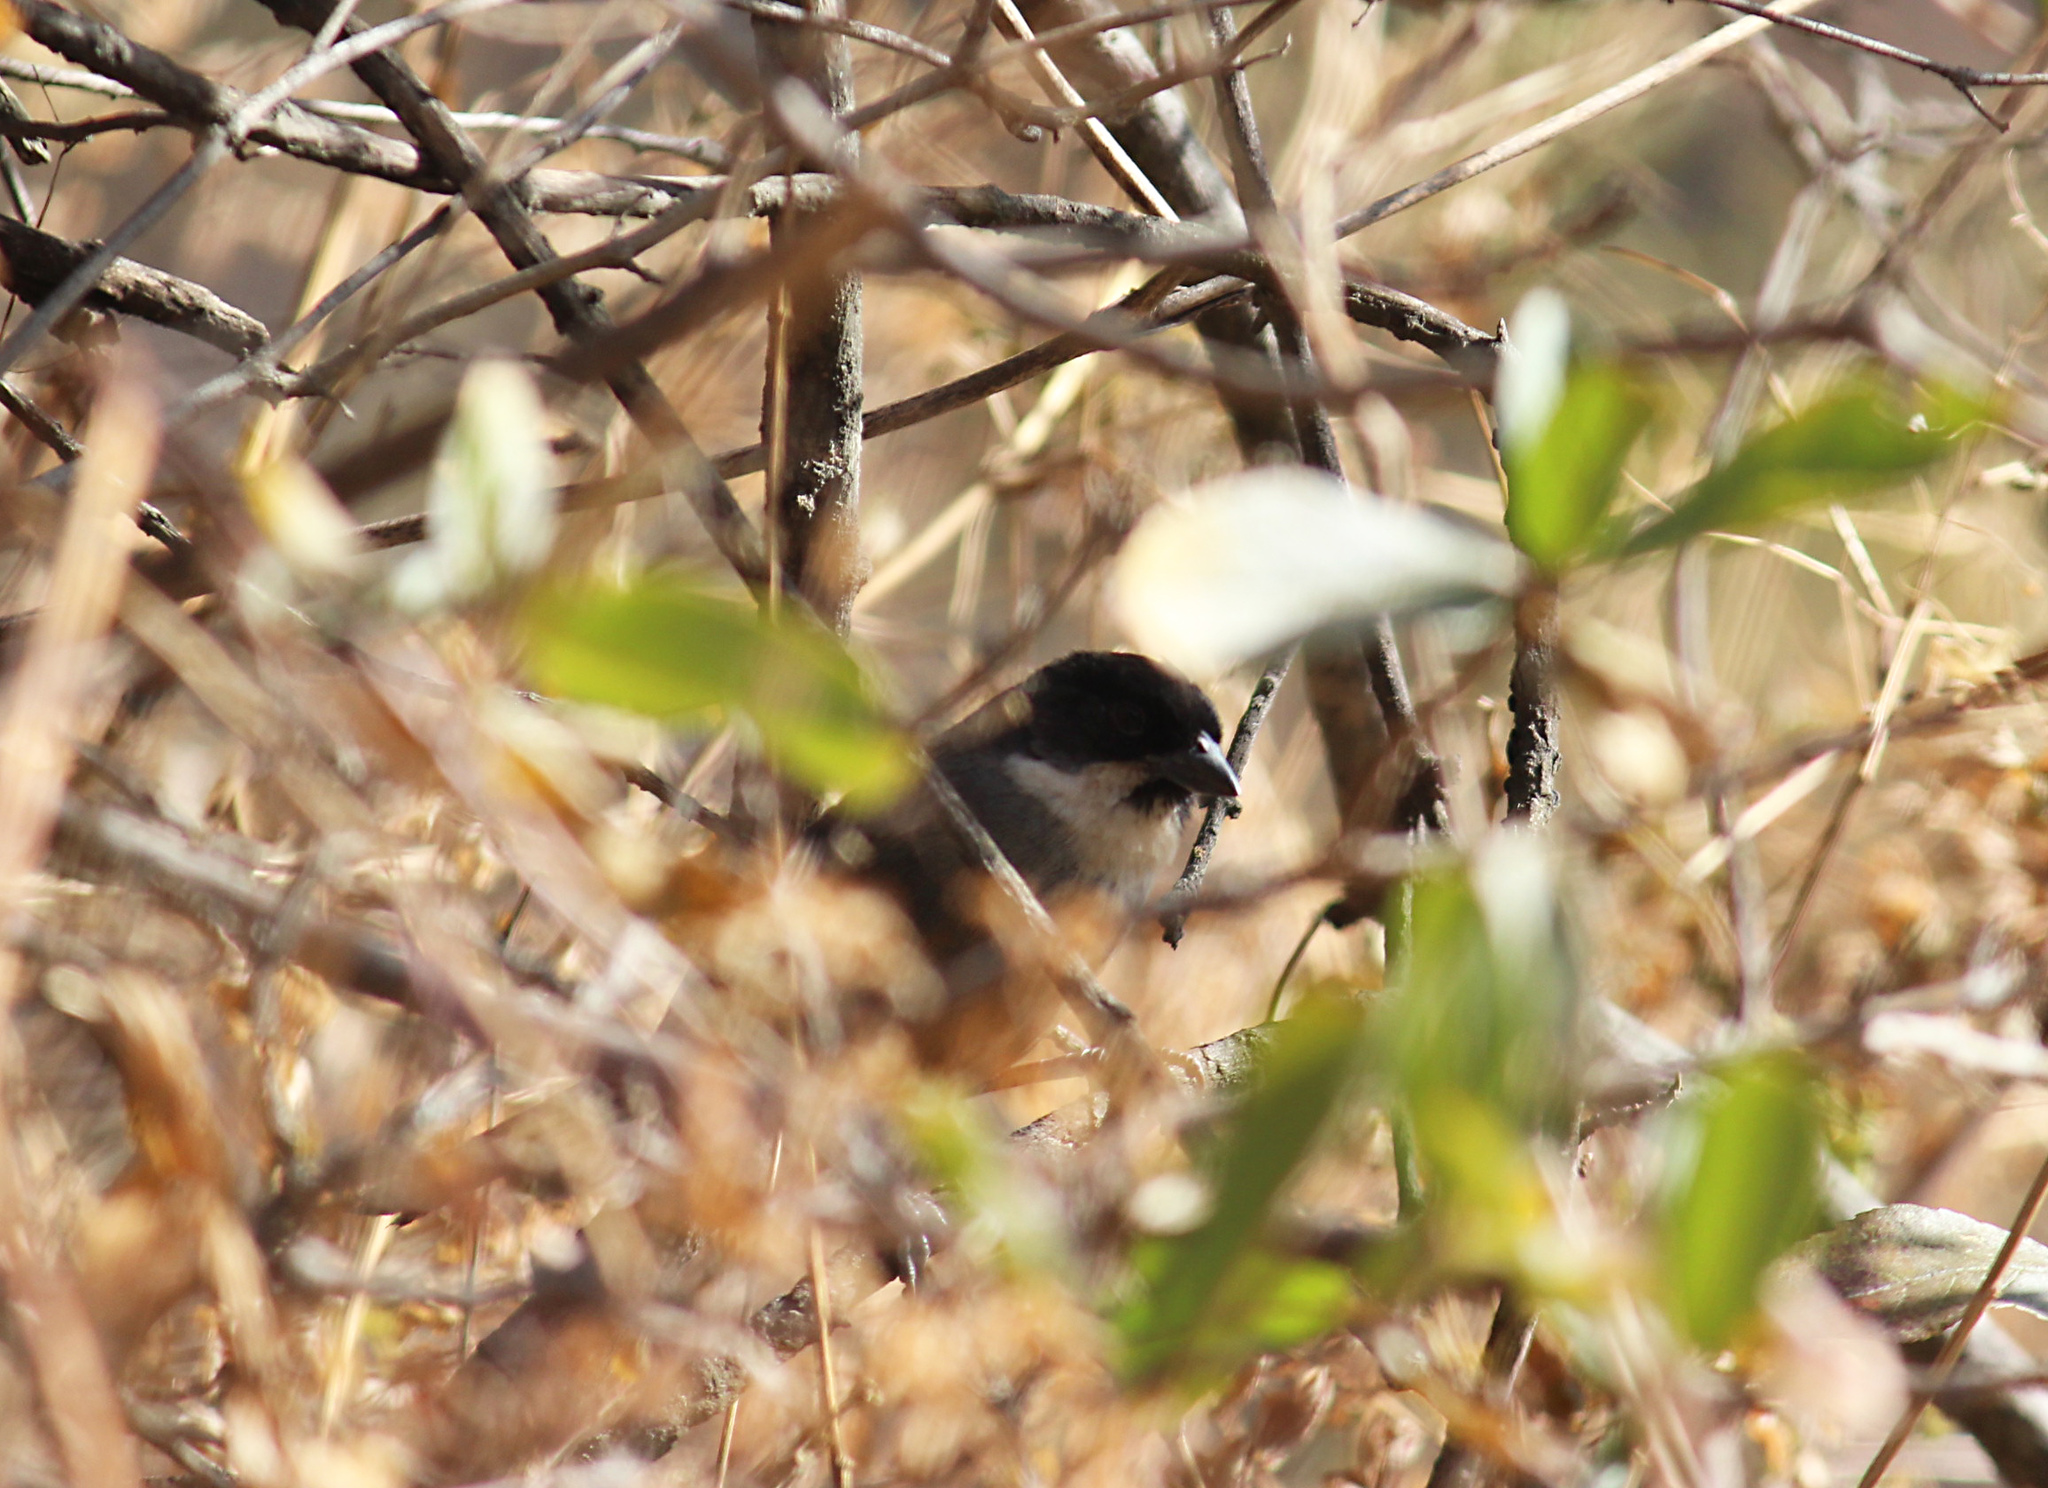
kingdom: Animalia
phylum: Chordata
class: Aves
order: Passeriformes
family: Passerellidae
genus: Atlapetes
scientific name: Atlapetes nationi
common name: Rusty-bellied brushfinch
